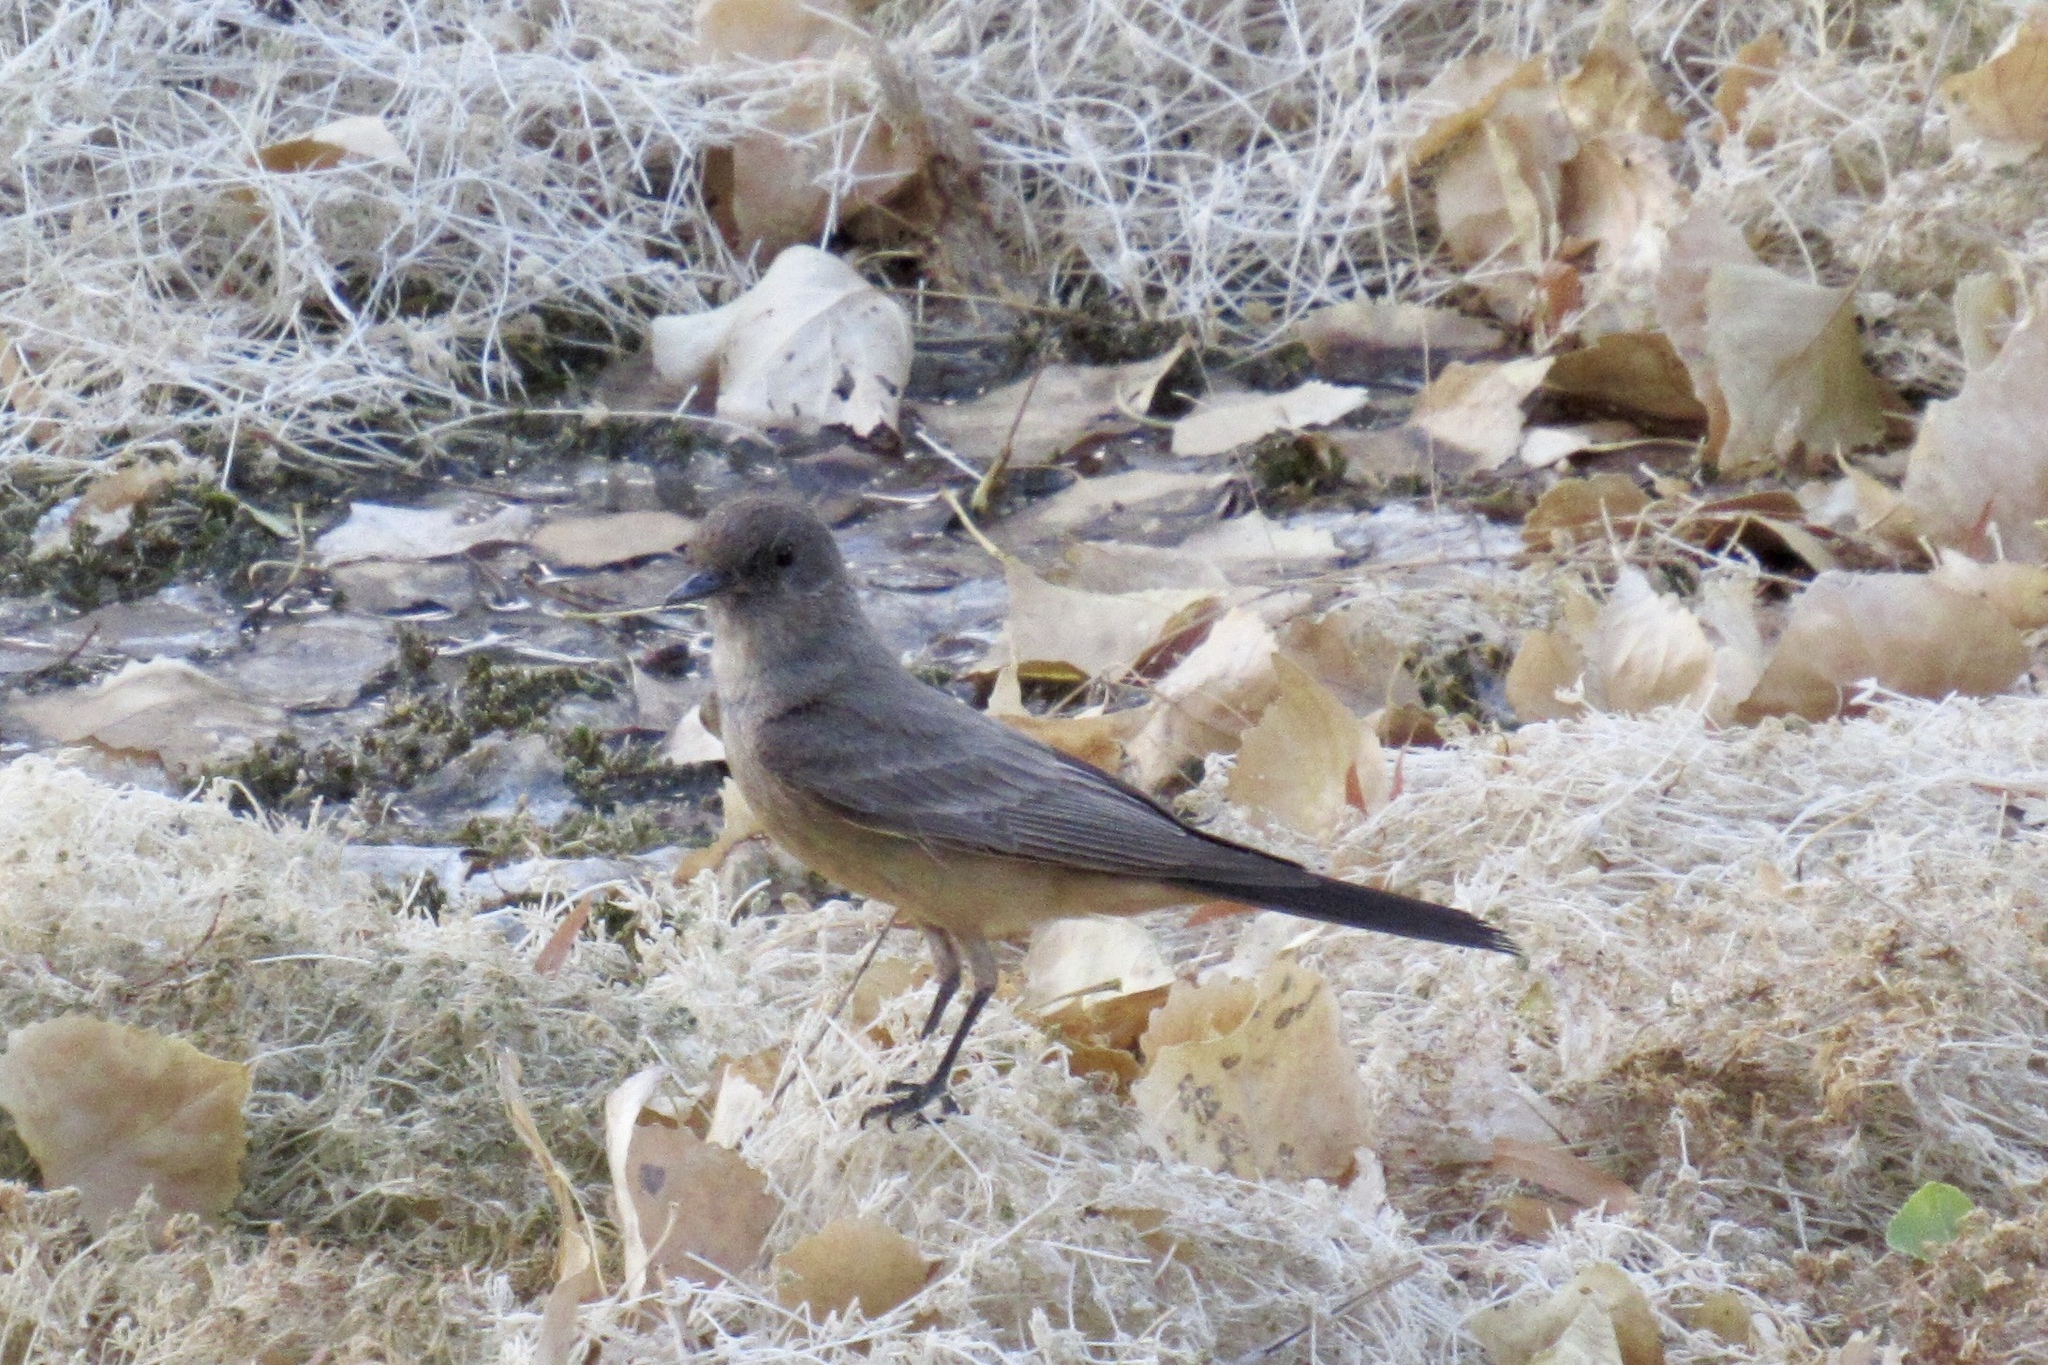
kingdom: Animalia
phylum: Chordata
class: Aves
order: Passeriformes
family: Tyrannidae
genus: Sayornis
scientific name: Sayornis saya
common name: Say's phoebe
